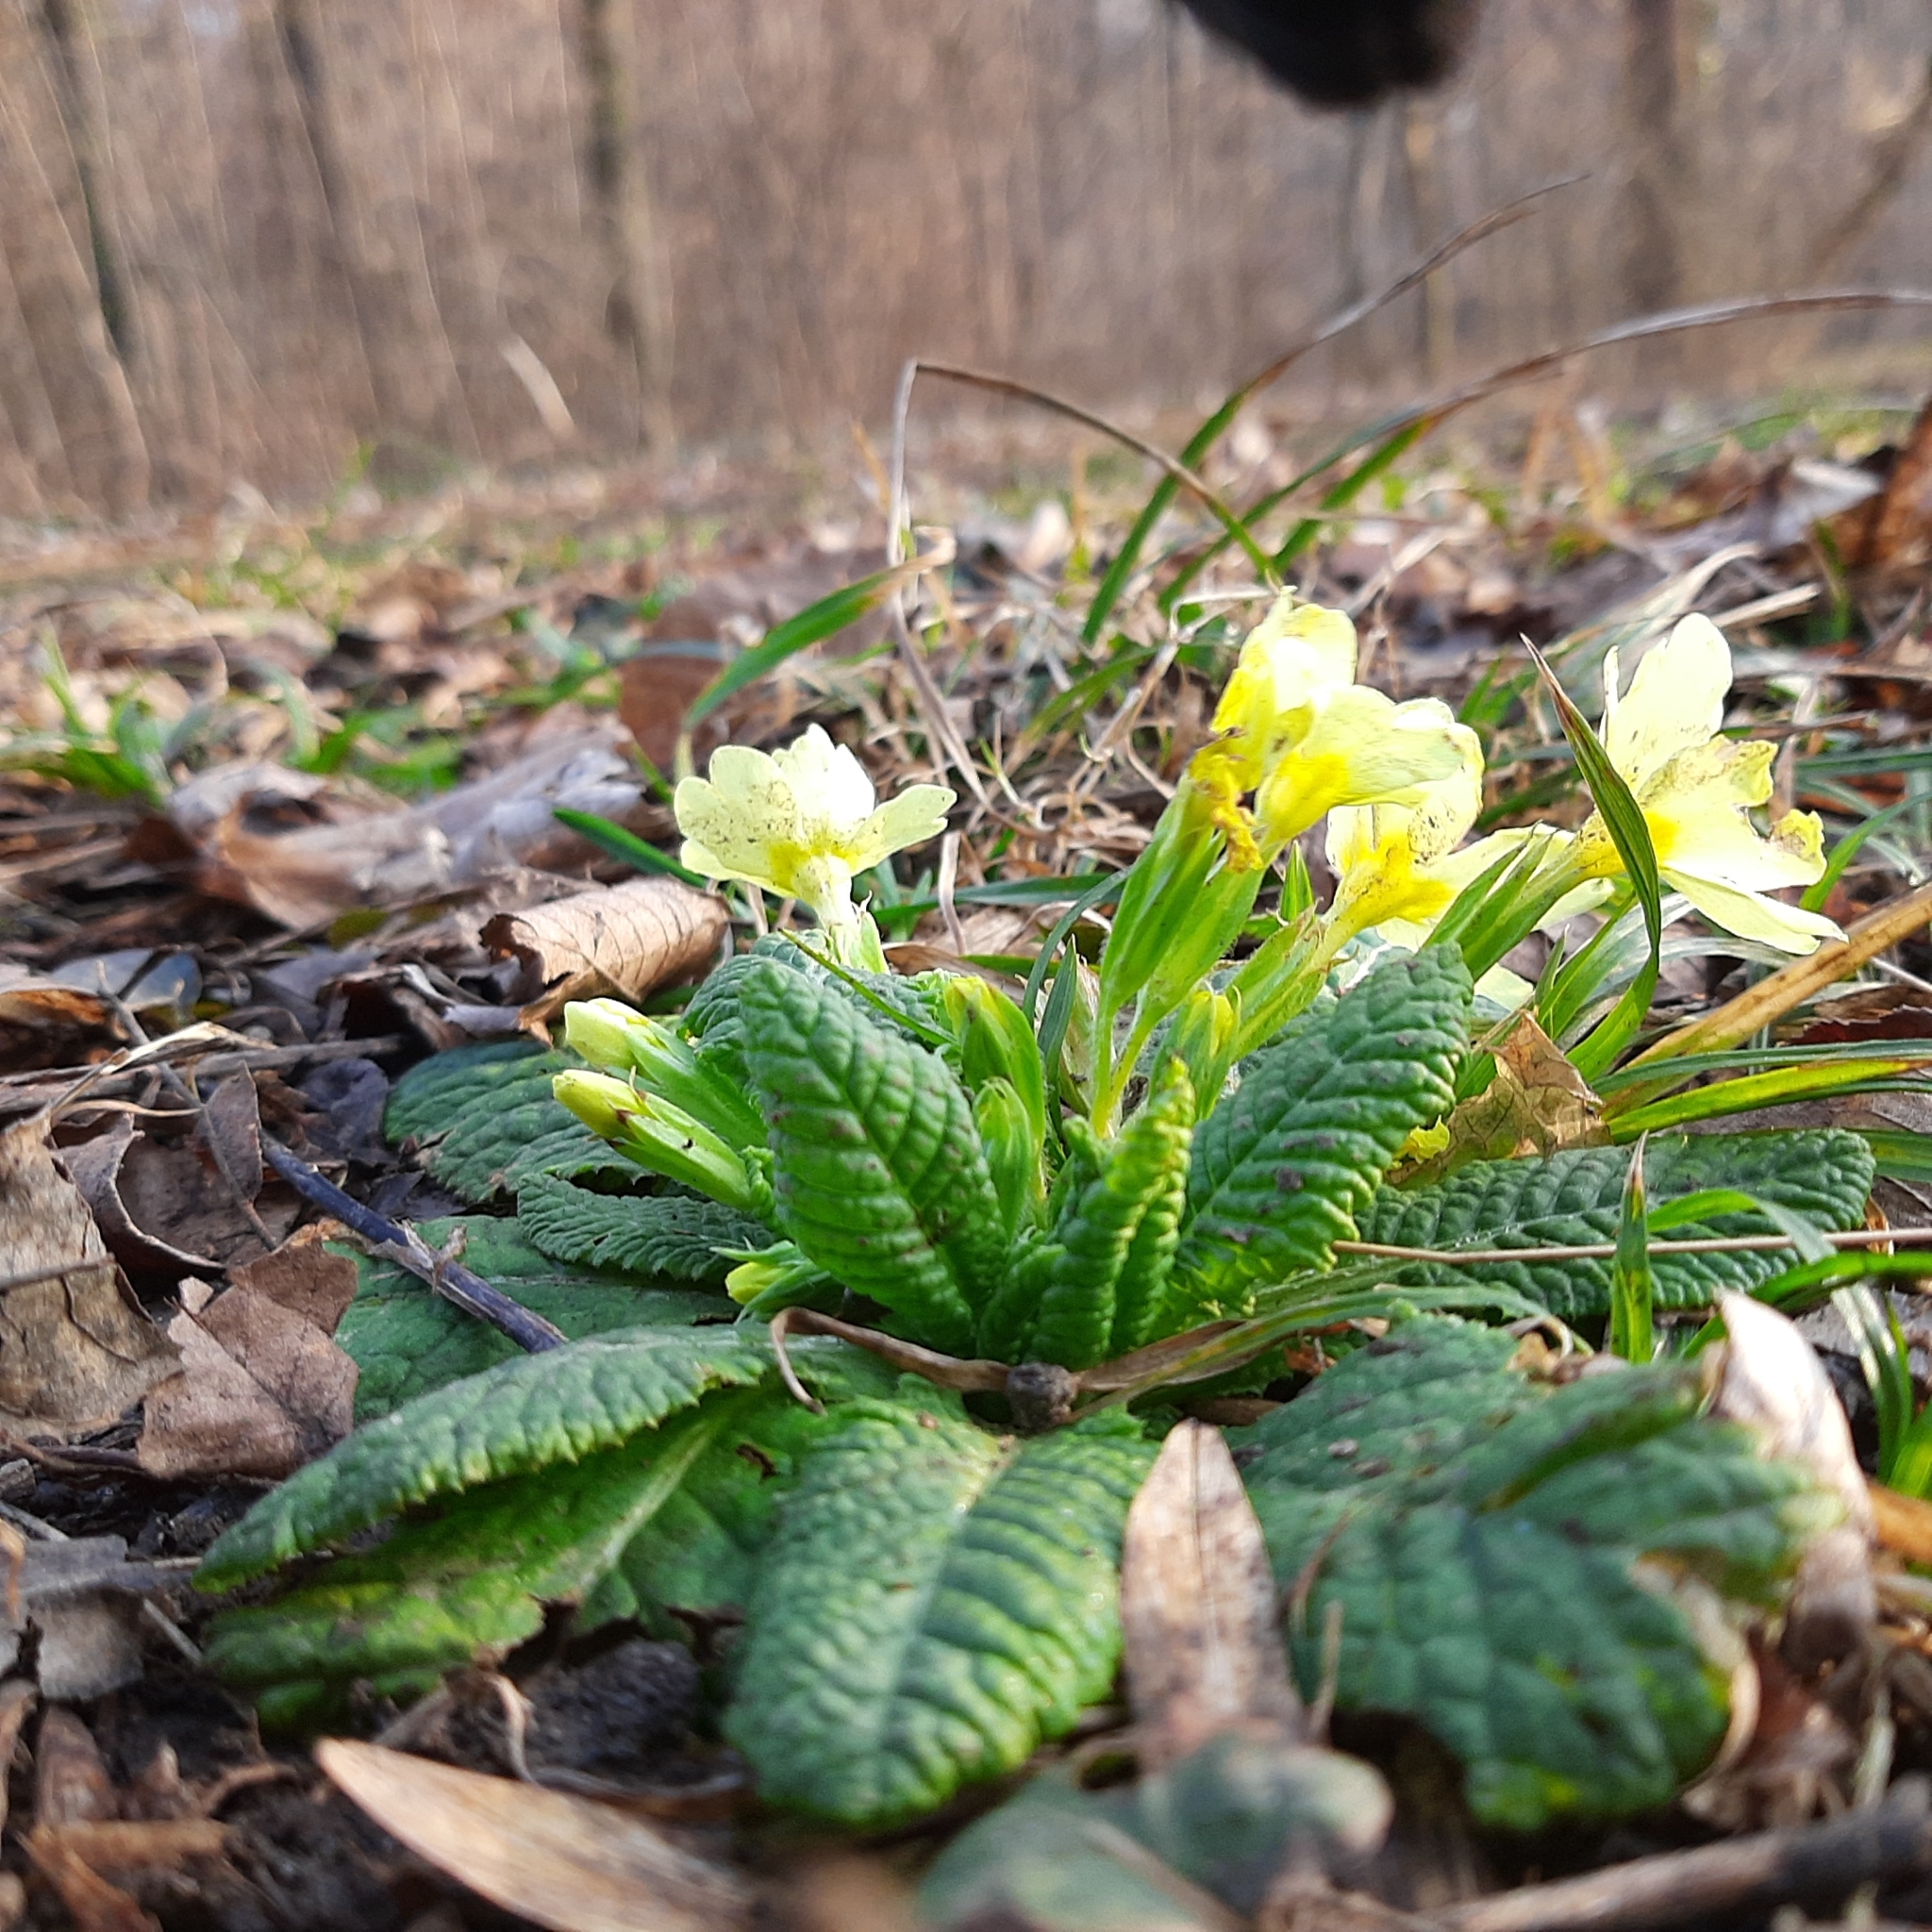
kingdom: Plantae
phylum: Tracheophyta
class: Magnoliopsida
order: Ericales
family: Primulaceae
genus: Primula
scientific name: Primula vulgaris
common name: Primrose
